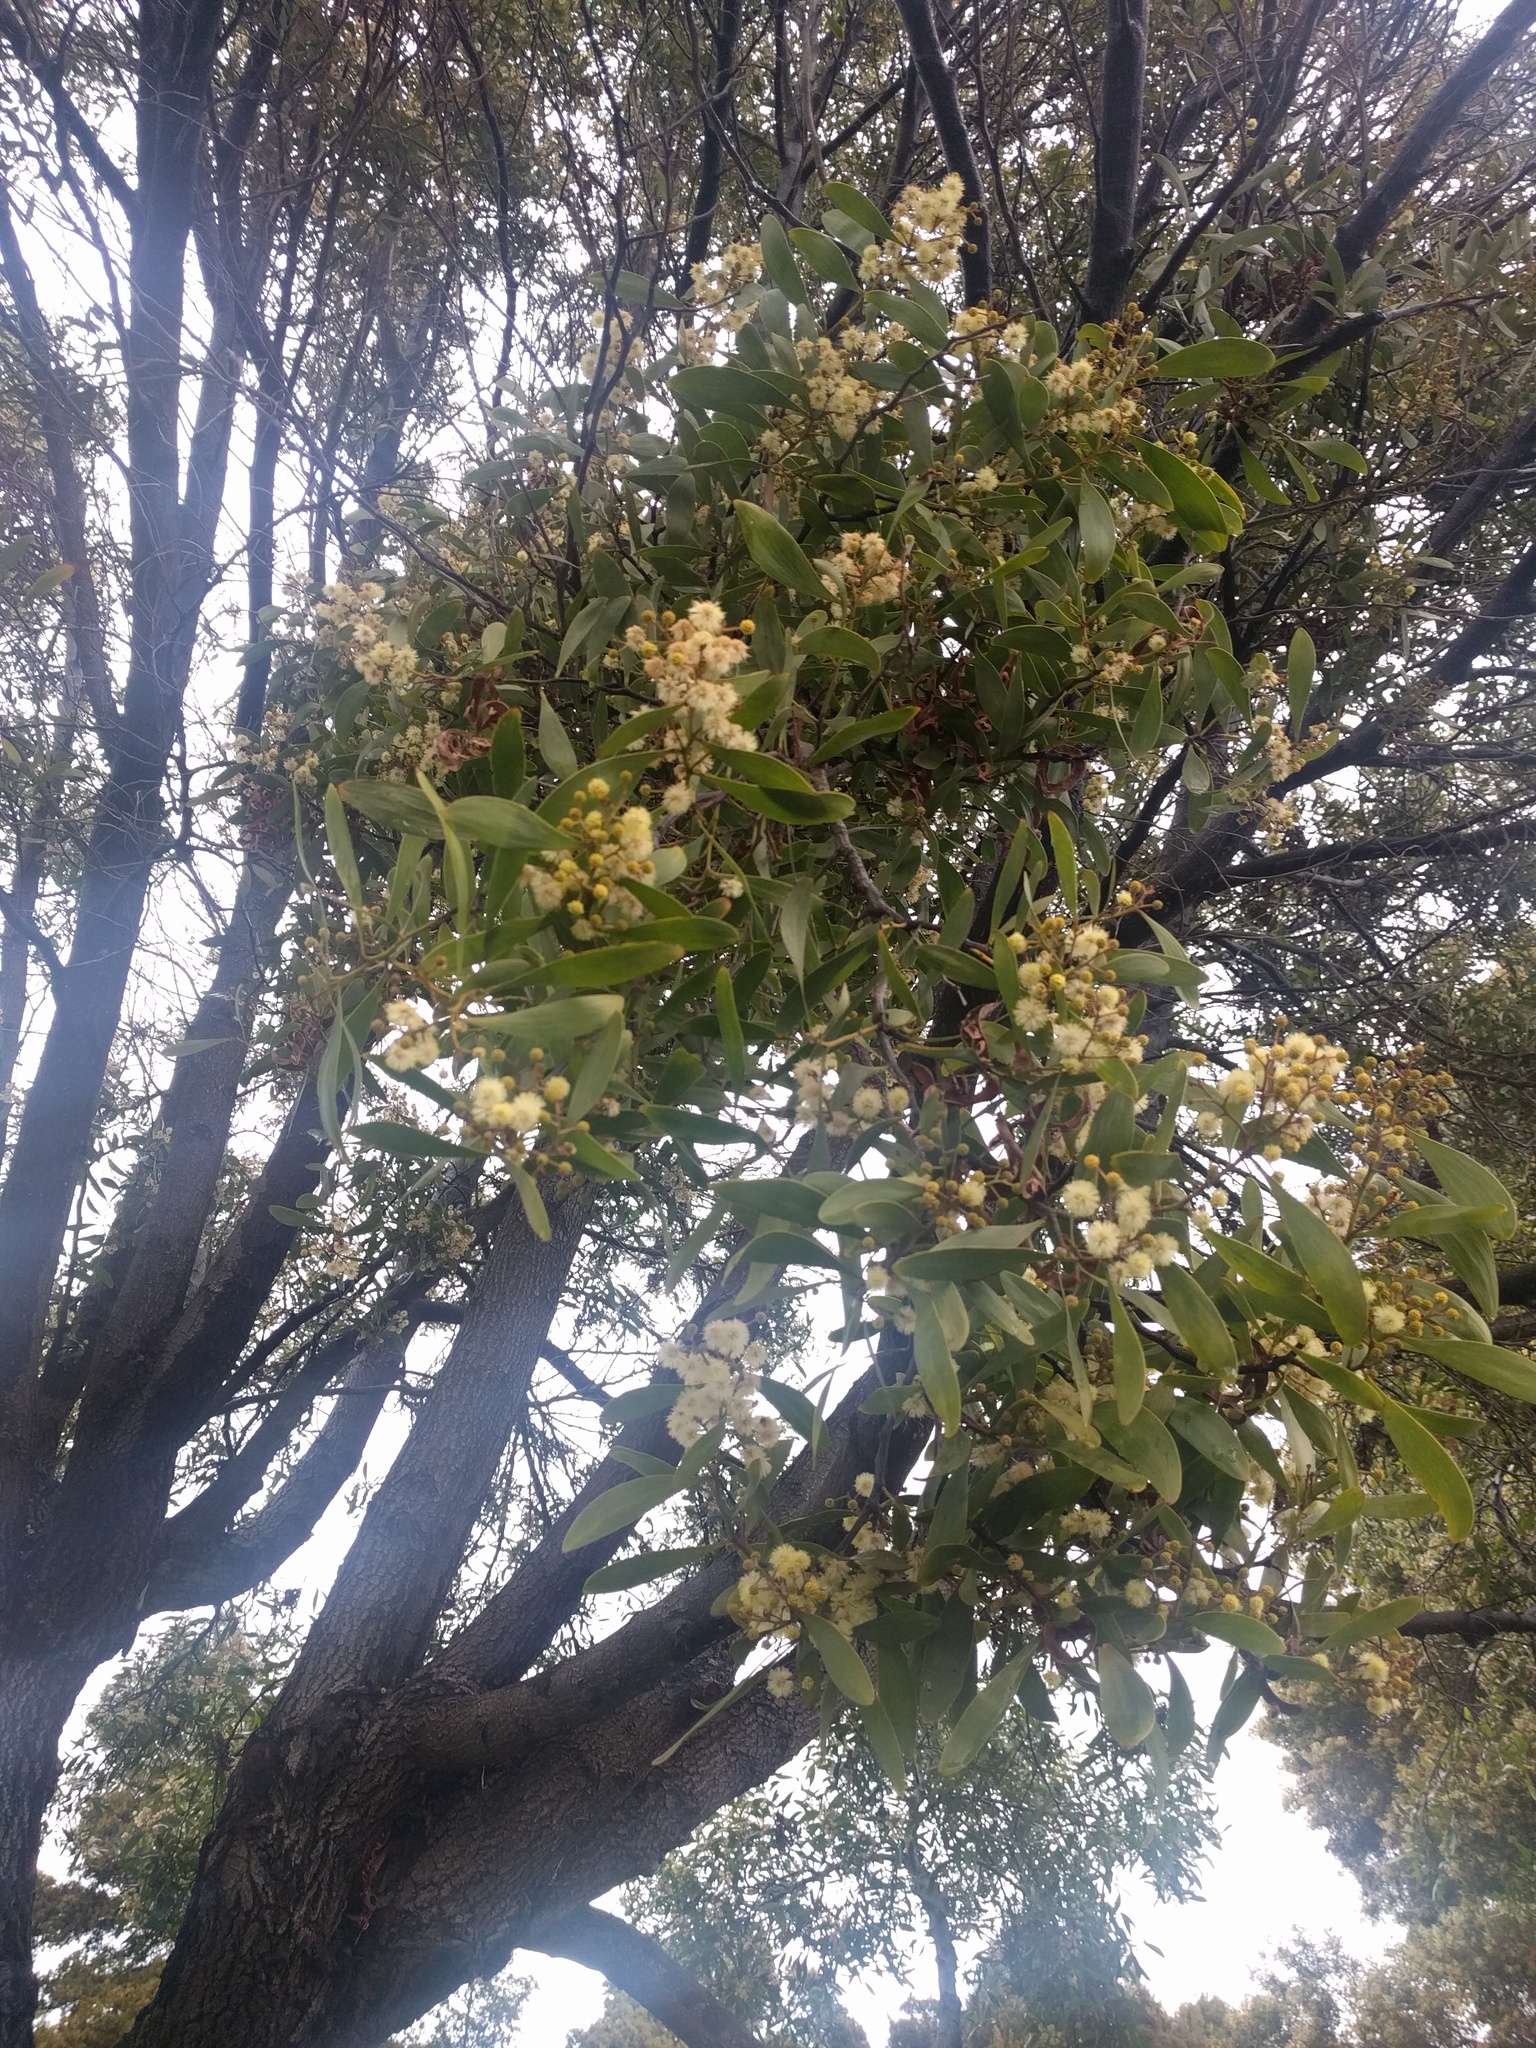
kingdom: Plantae
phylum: Tracheophyta
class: Magnoliopsida
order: Fabales
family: Fabaceae
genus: Acacia
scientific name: Acacia melanoxylon
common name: Blackwood
